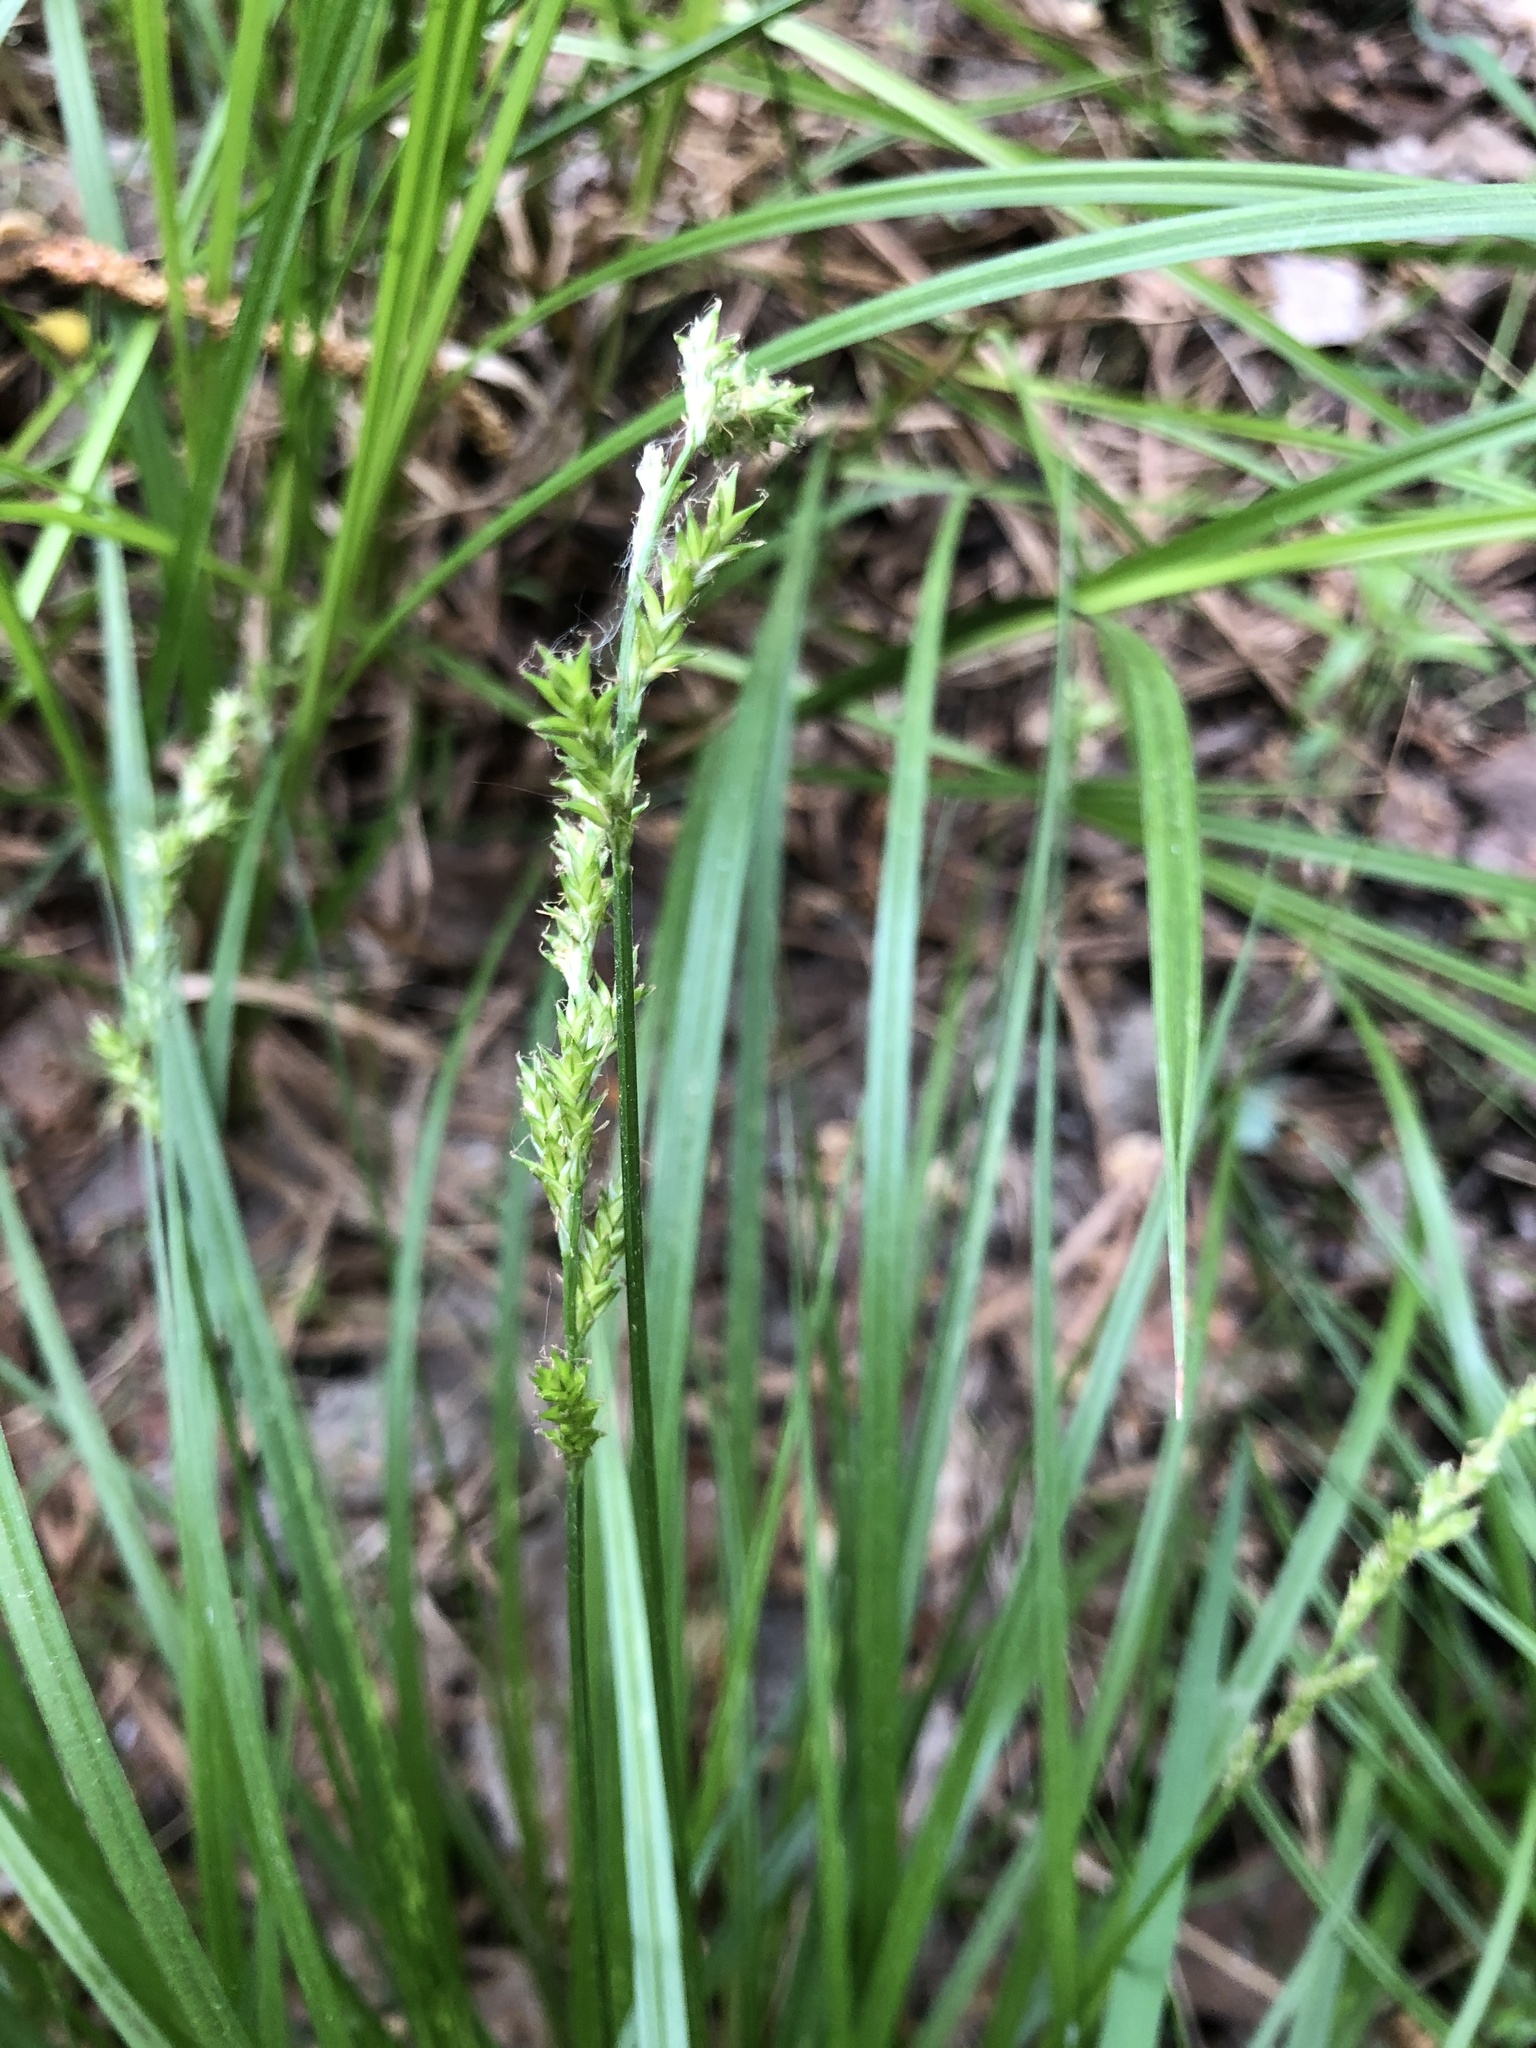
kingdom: Plantae
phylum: Tracheophyta
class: Liliopsida
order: Poales
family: Cyperaceae
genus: Carex
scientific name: Carex elongata
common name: Elongated sedge
